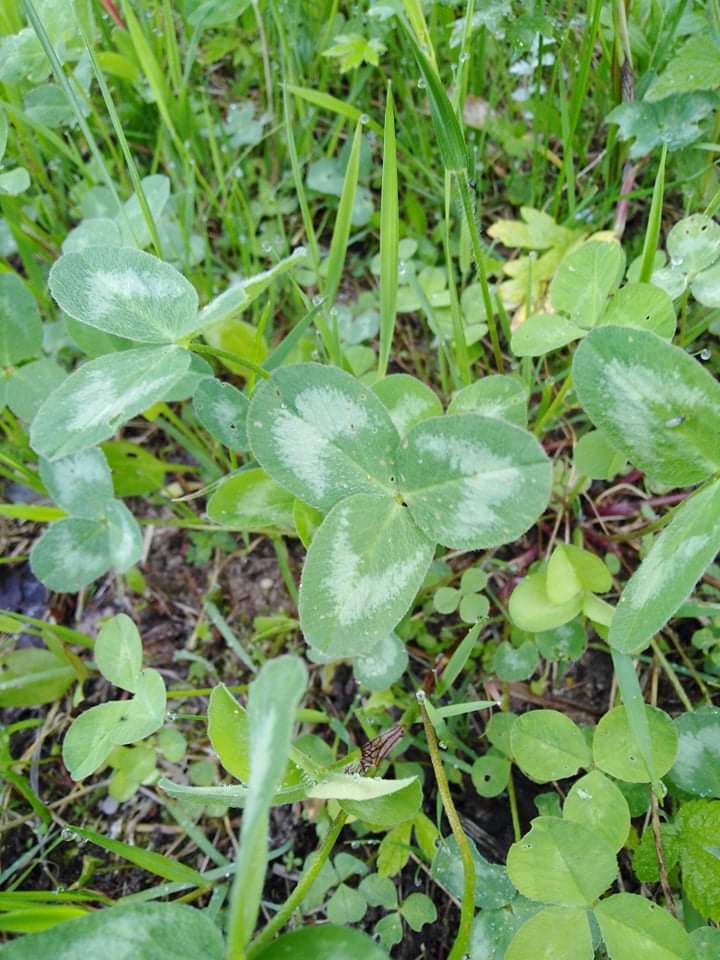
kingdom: Plantae
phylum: Tracheophyta
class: Magnoliopsida
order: Fabales
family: Fabaceae
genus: Trifolium
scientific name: Trifolium pratense
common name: Red clover
